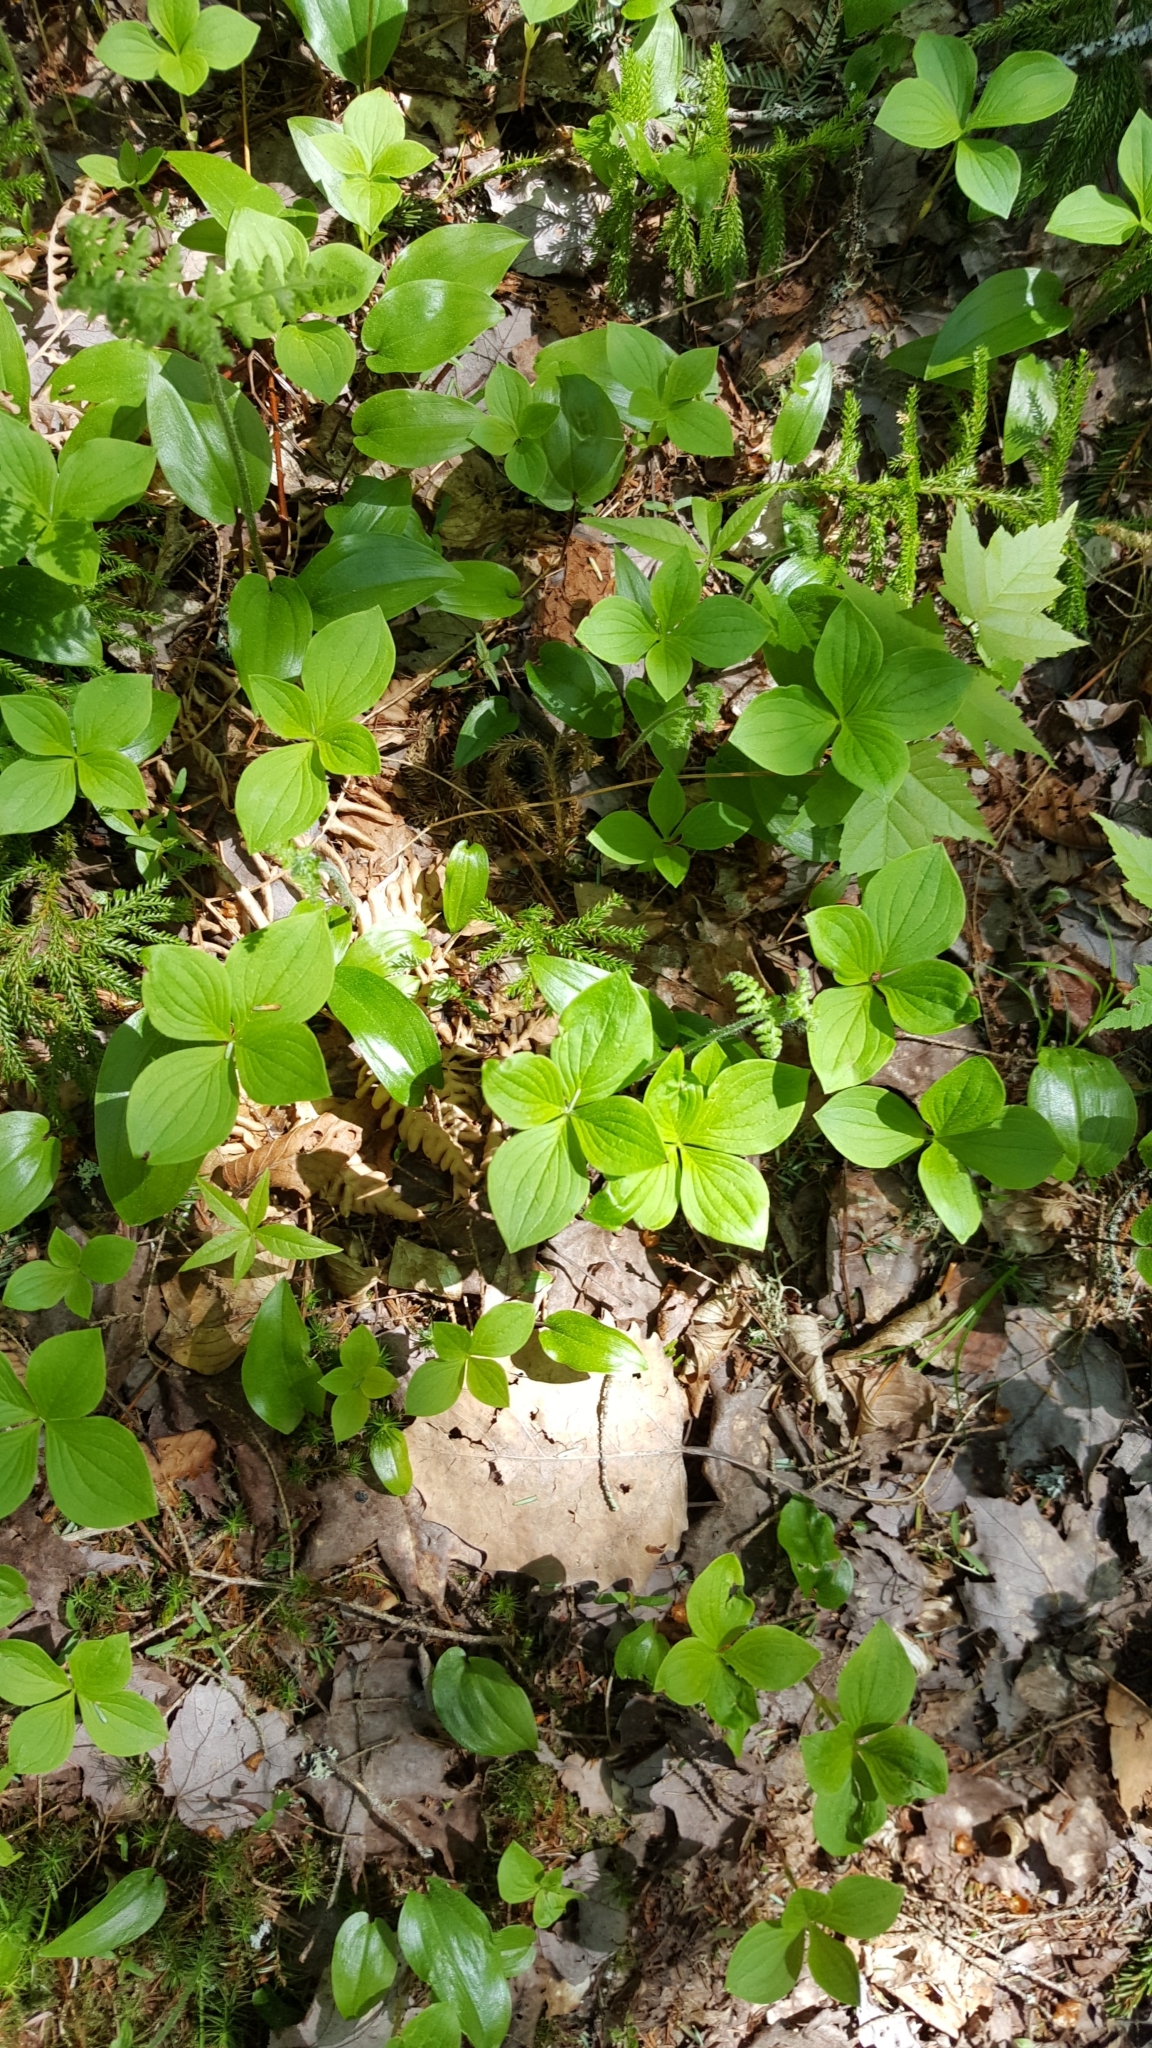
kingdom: Plantae
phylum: Tracheophyta
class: Magnoliopsida
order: Cornales
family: Cornaceae
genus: Cornus
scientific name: Cornus canadensis
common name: Creeping dogwood
